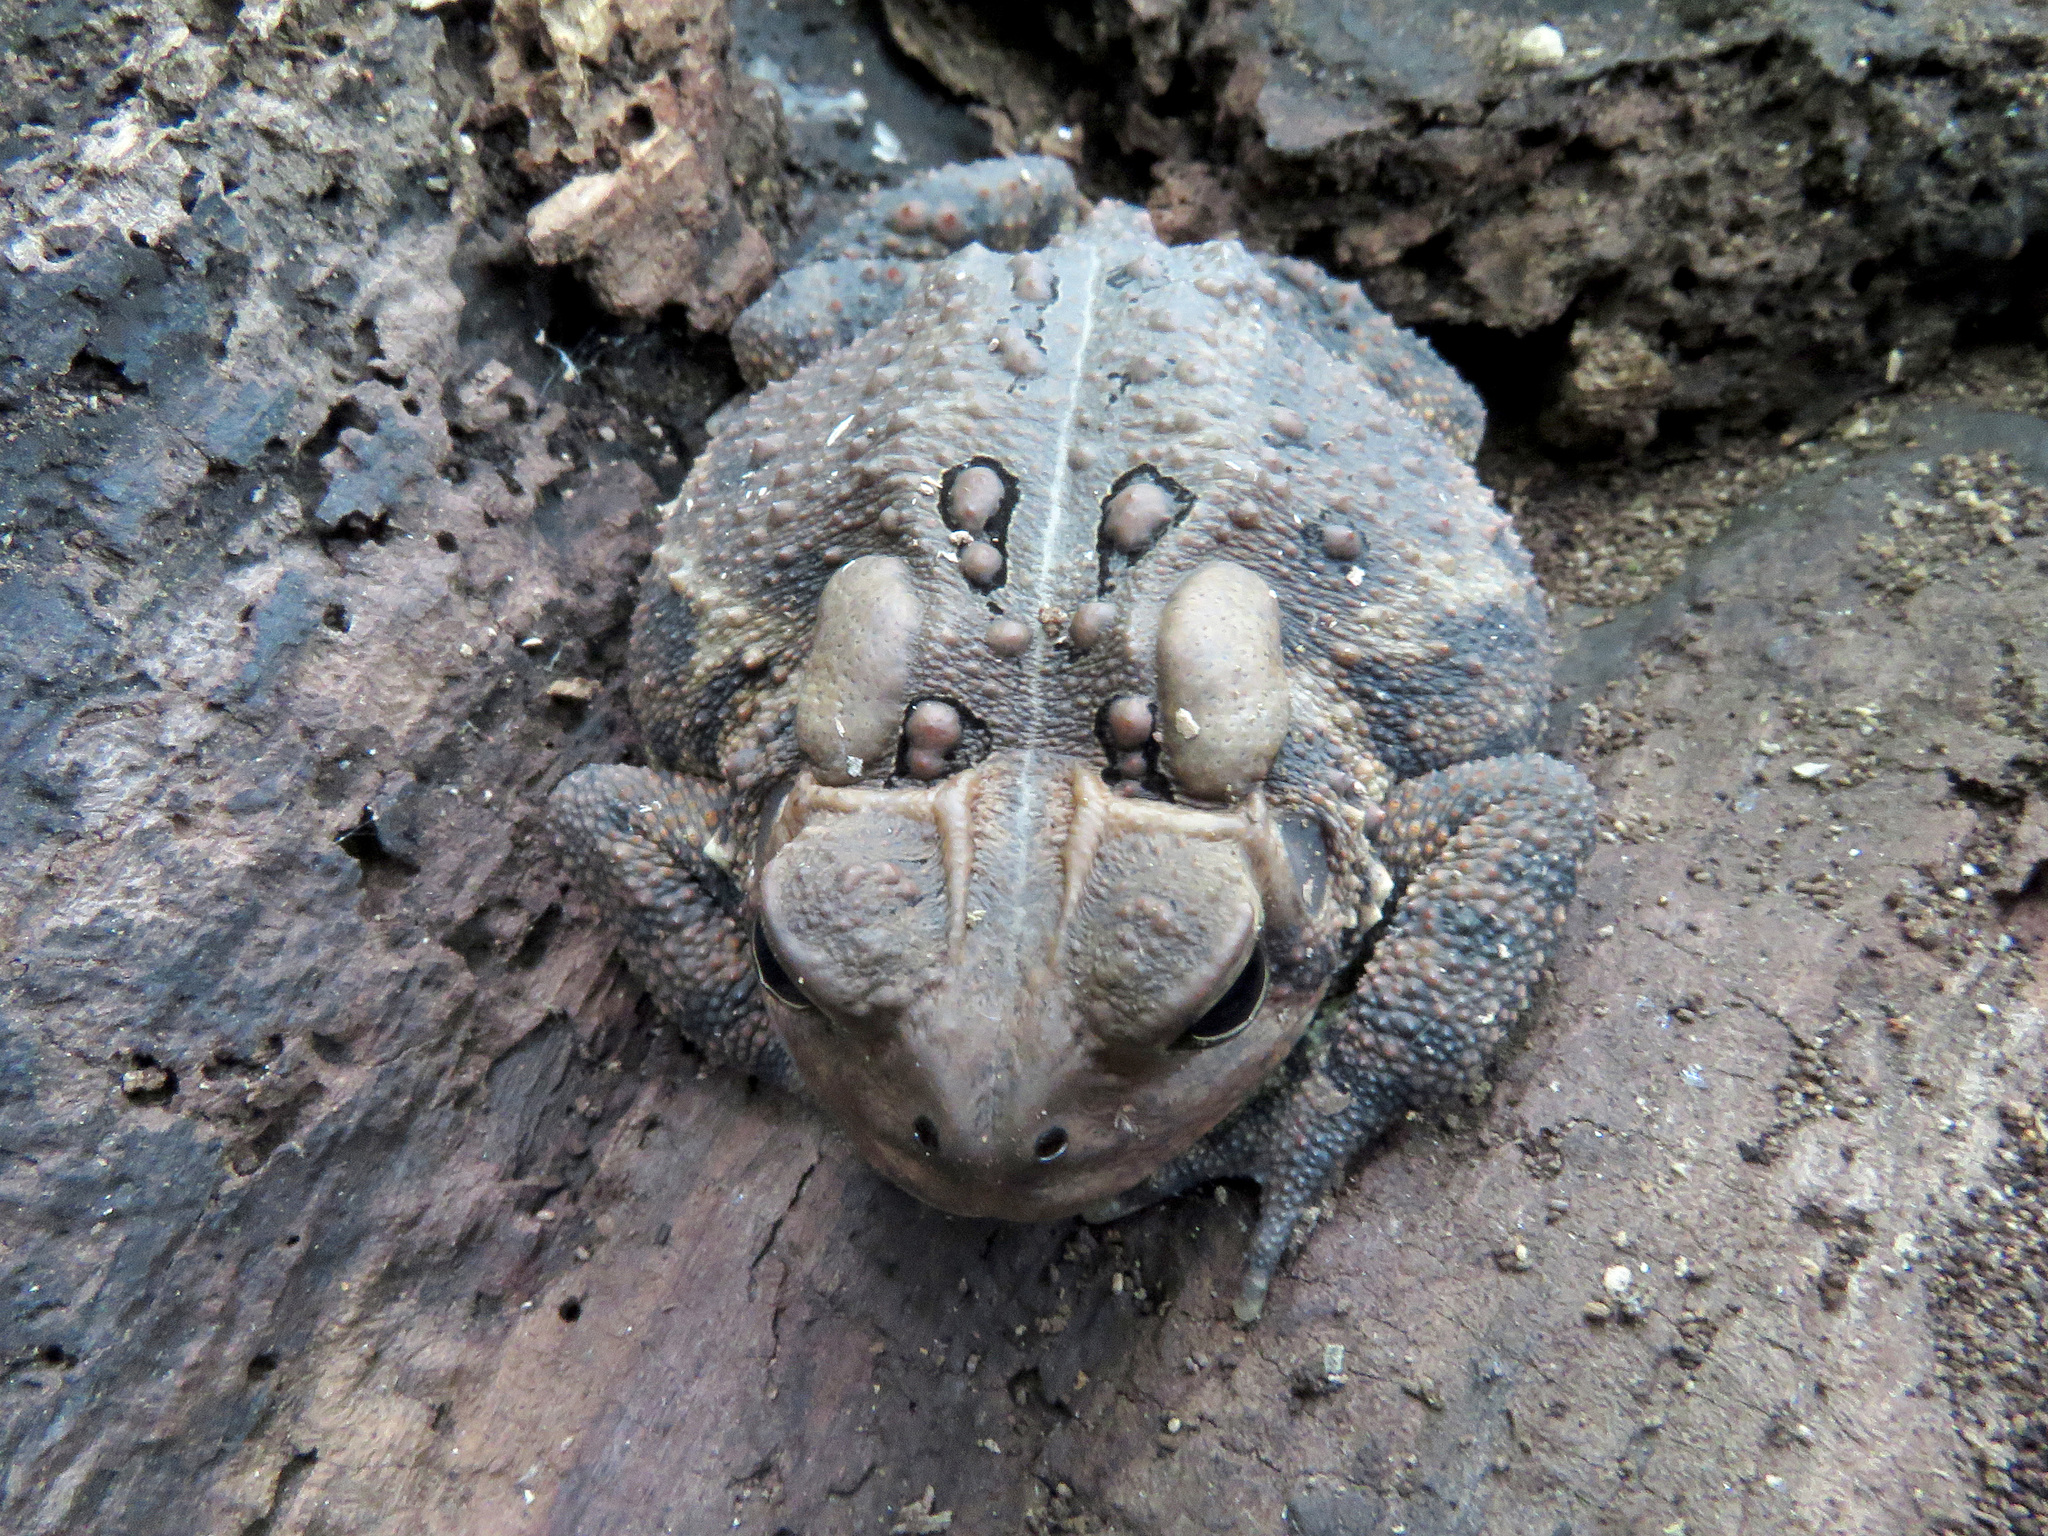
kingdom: Animalia
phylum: Chordata
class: Amphibia
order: Anura
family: Bufonidae
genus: Anaxyrus
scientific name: Anaxyrus americanus
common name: American toad
